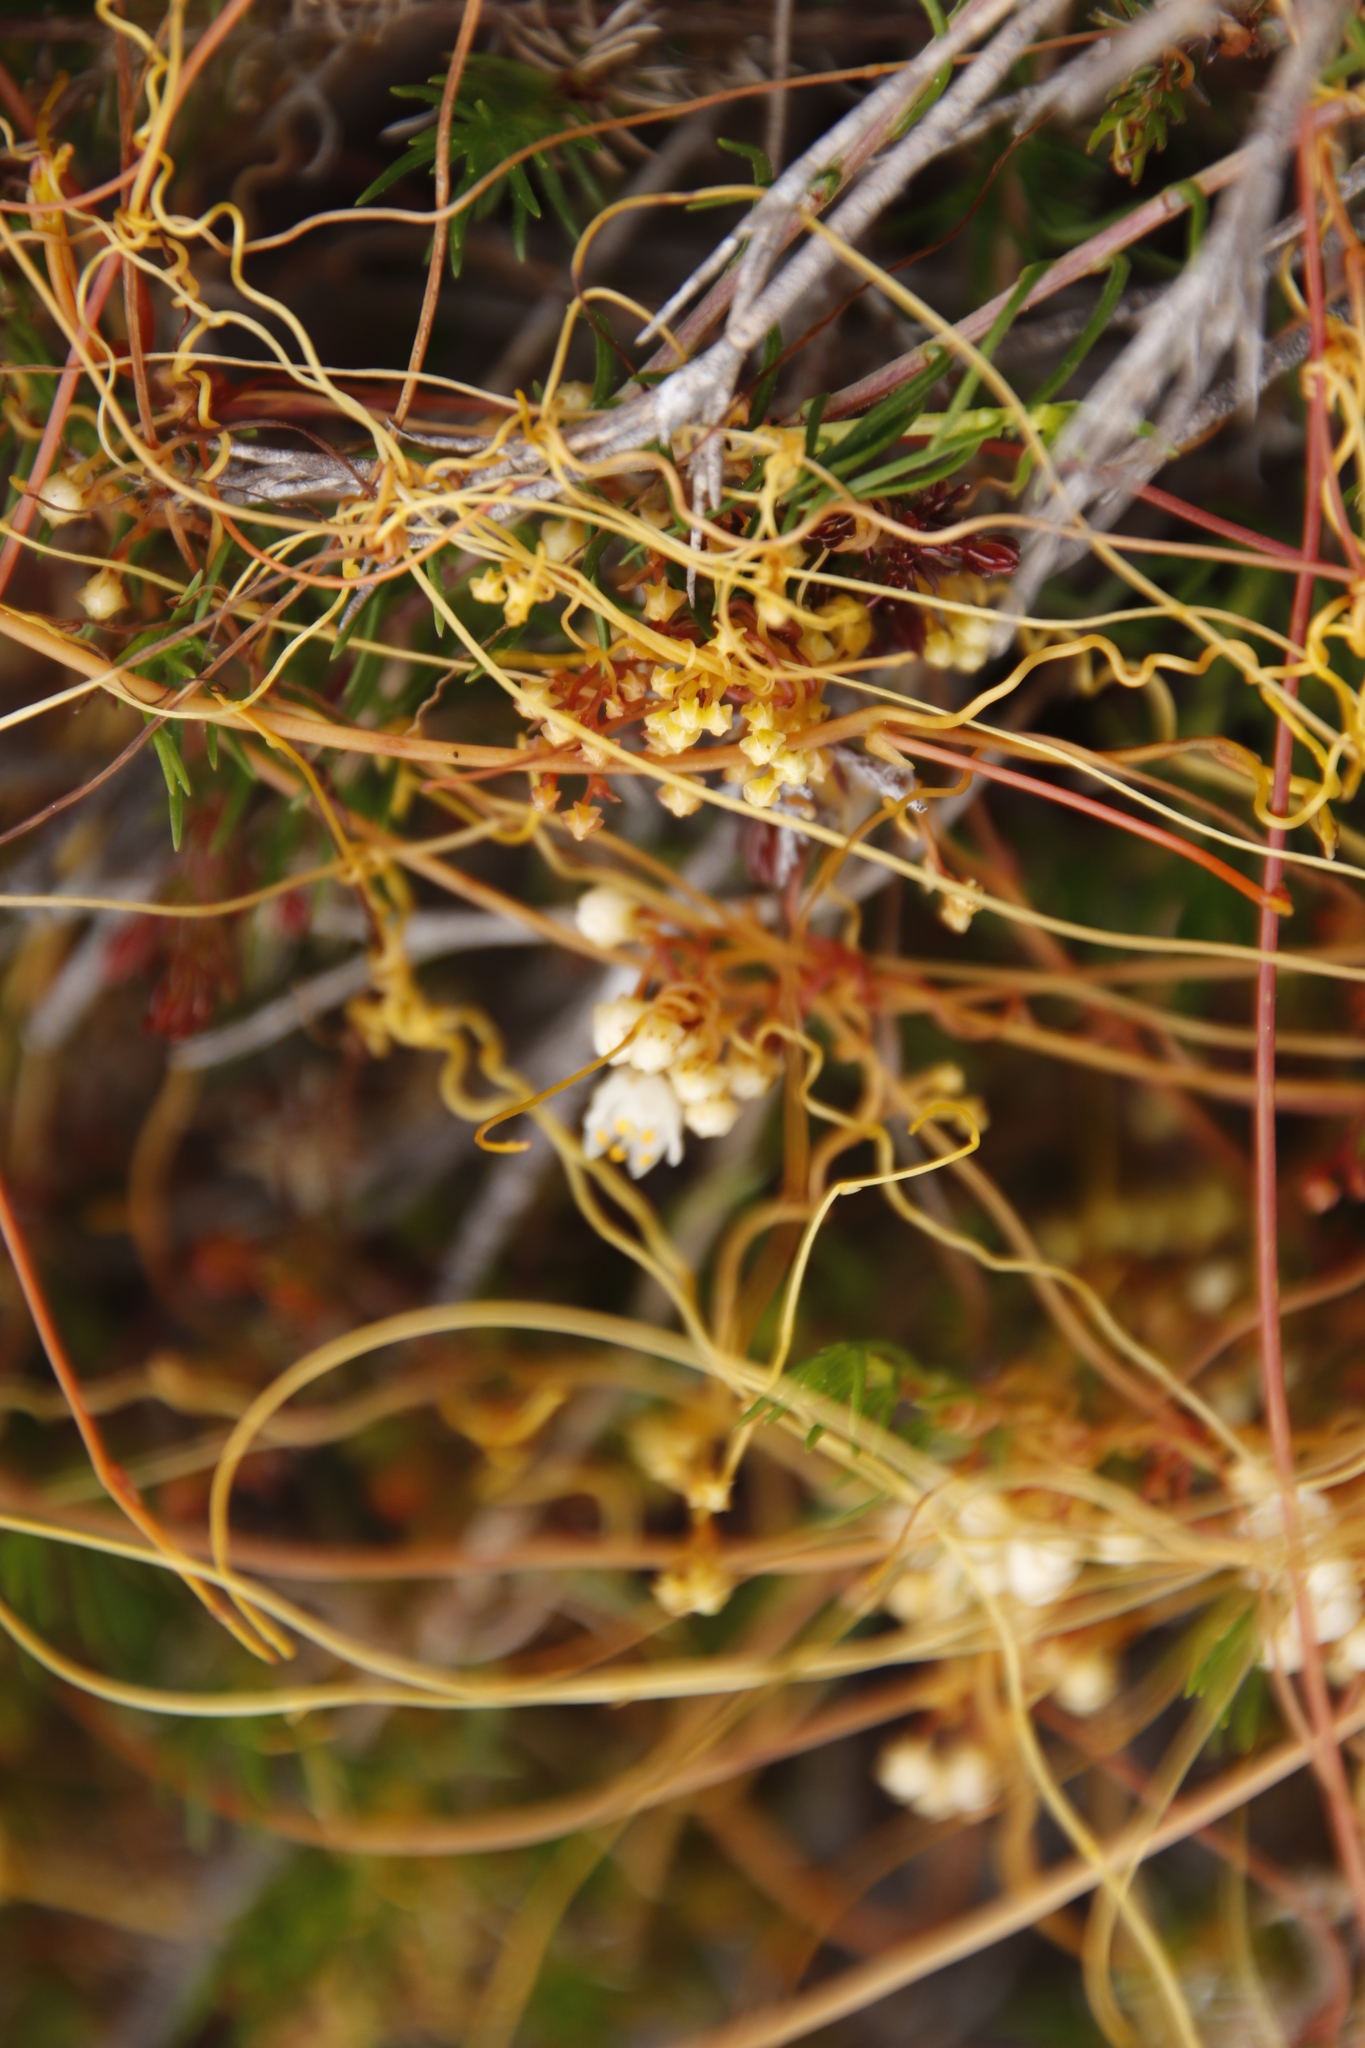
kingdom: Plantae
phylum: Tracheophyta
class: Magnoliopsida
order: Solanales
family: Convolvulaceae
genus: Cuscuta
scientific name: Cuscuta angulata
